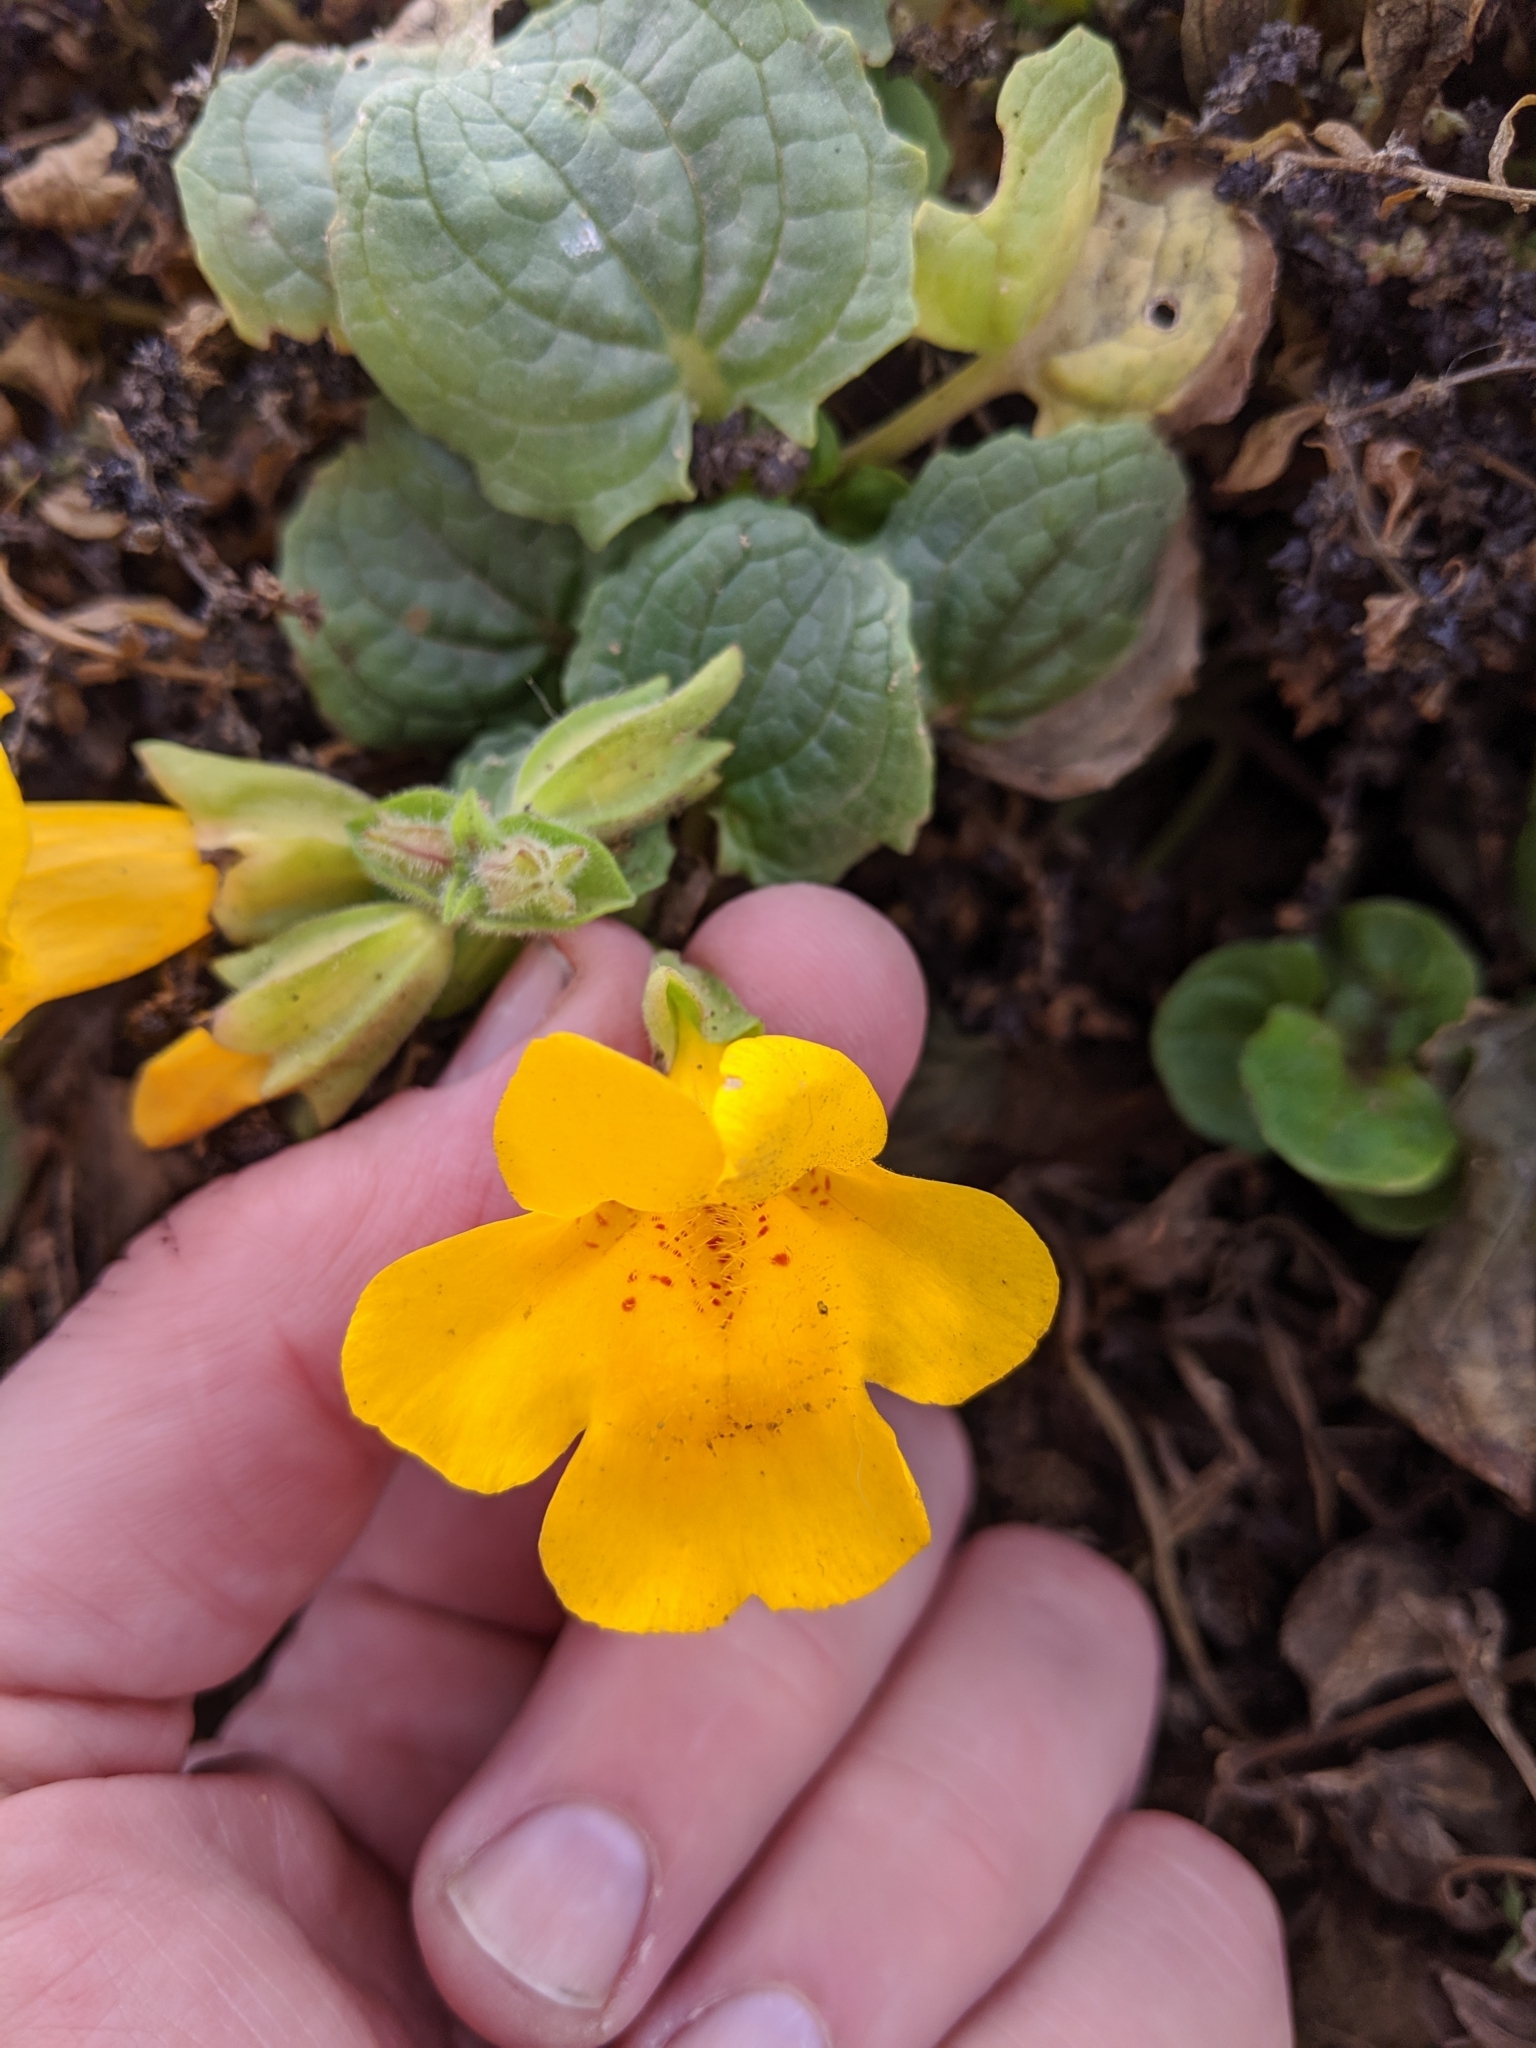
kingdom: Plantae
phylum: Tracheophyta
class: Magnoliopsida
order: Lamiales
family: Phrymaceae
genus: Erythranthe
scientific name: Erythranthe grandis
